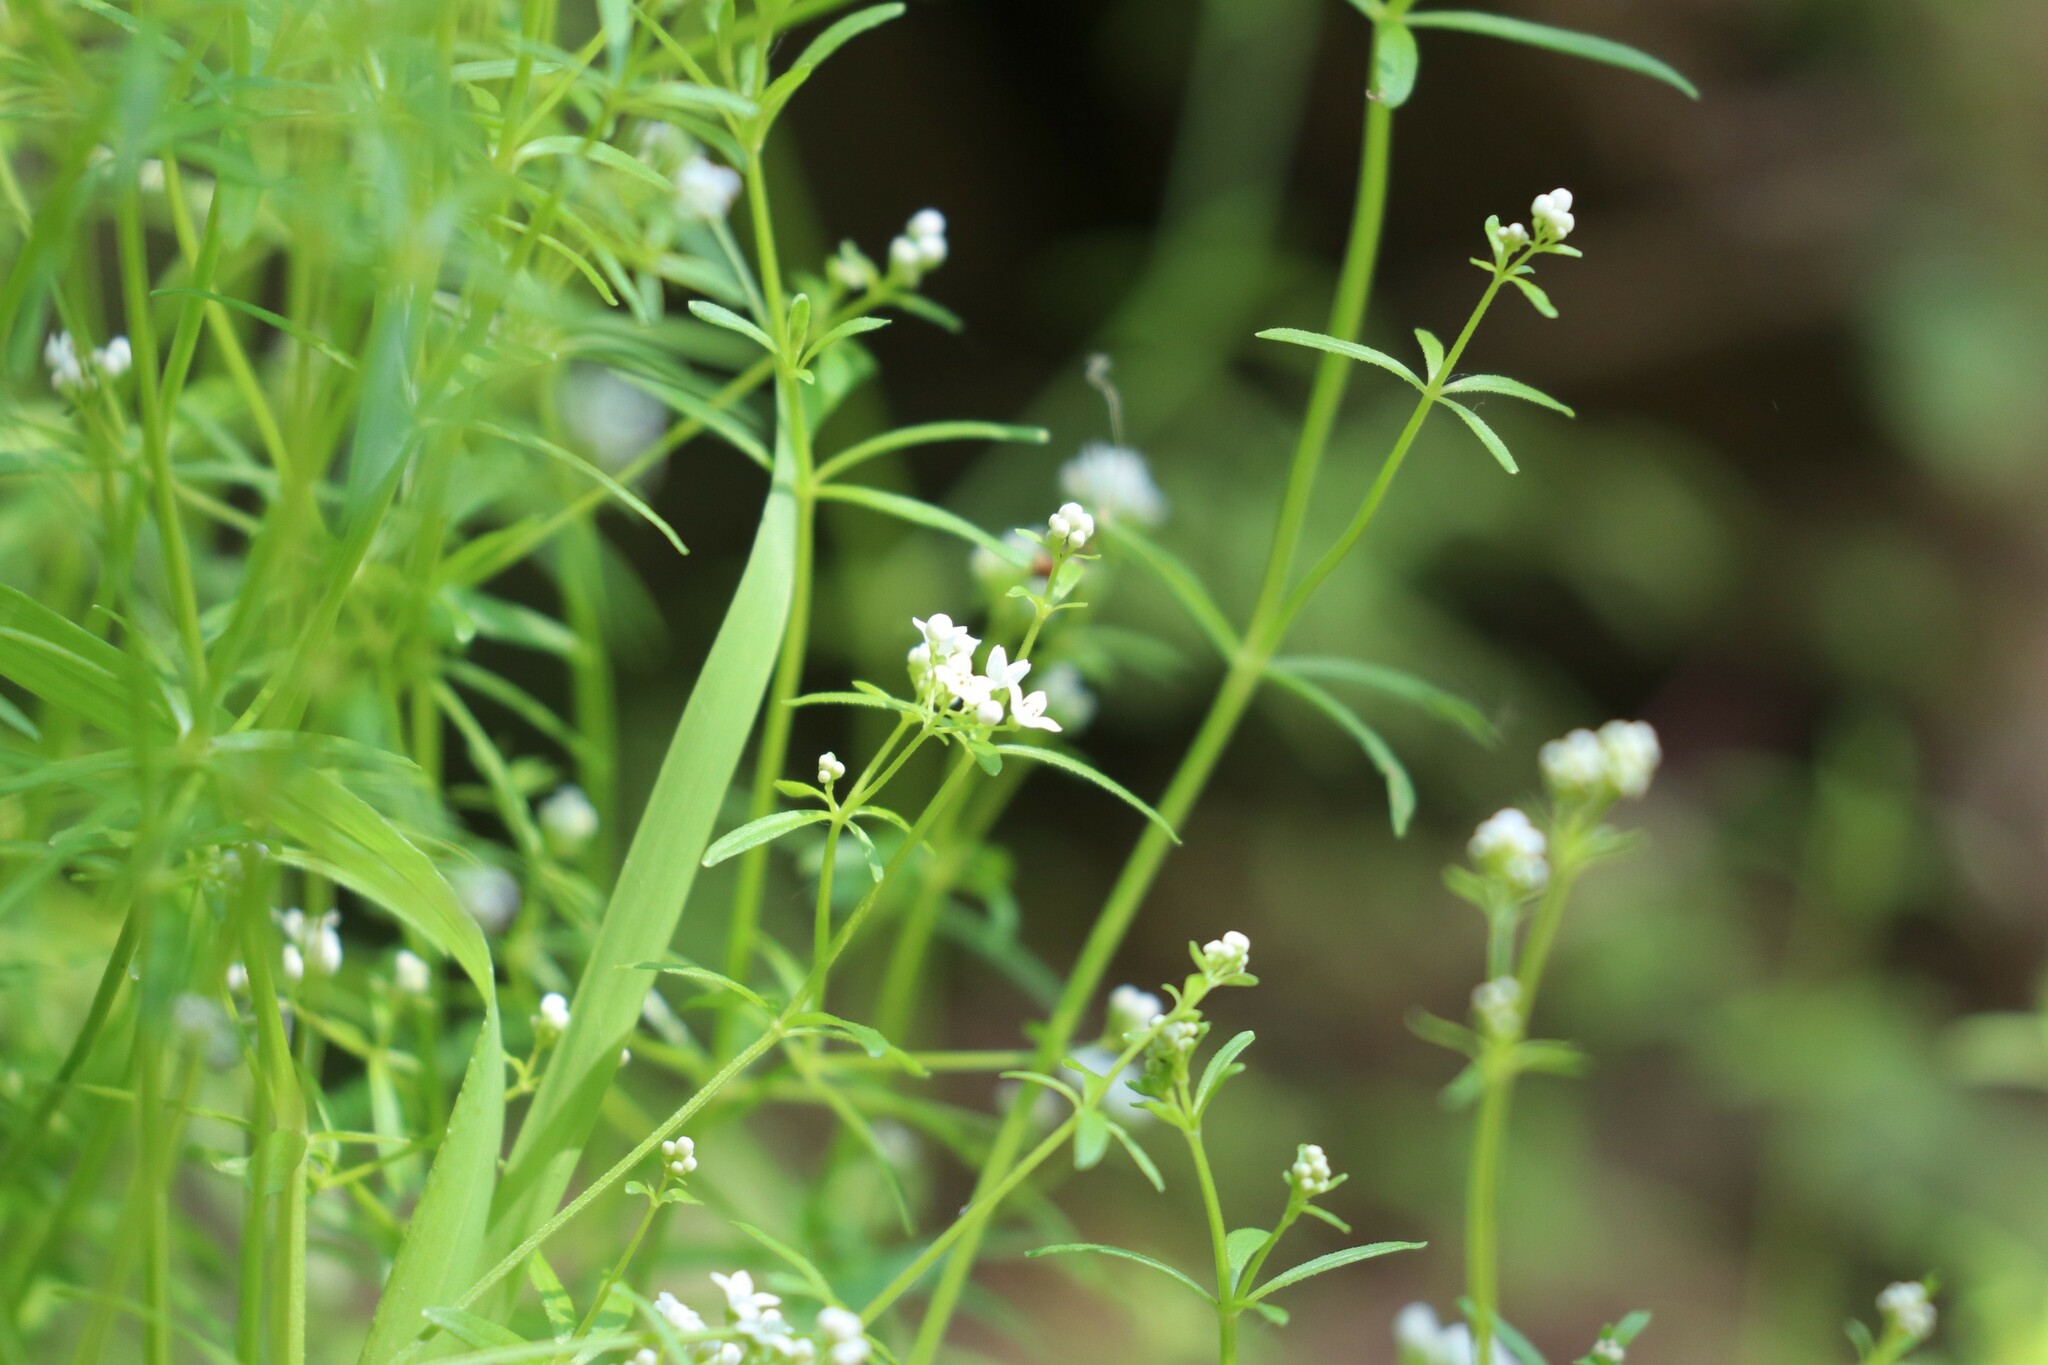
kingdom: Plantae
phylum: Tracheophyta
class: Magnoliopsida
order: Gentianales
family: Rubiaceae
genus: Galium
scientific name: Galium palustre
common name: Common marsh-bedstraw
